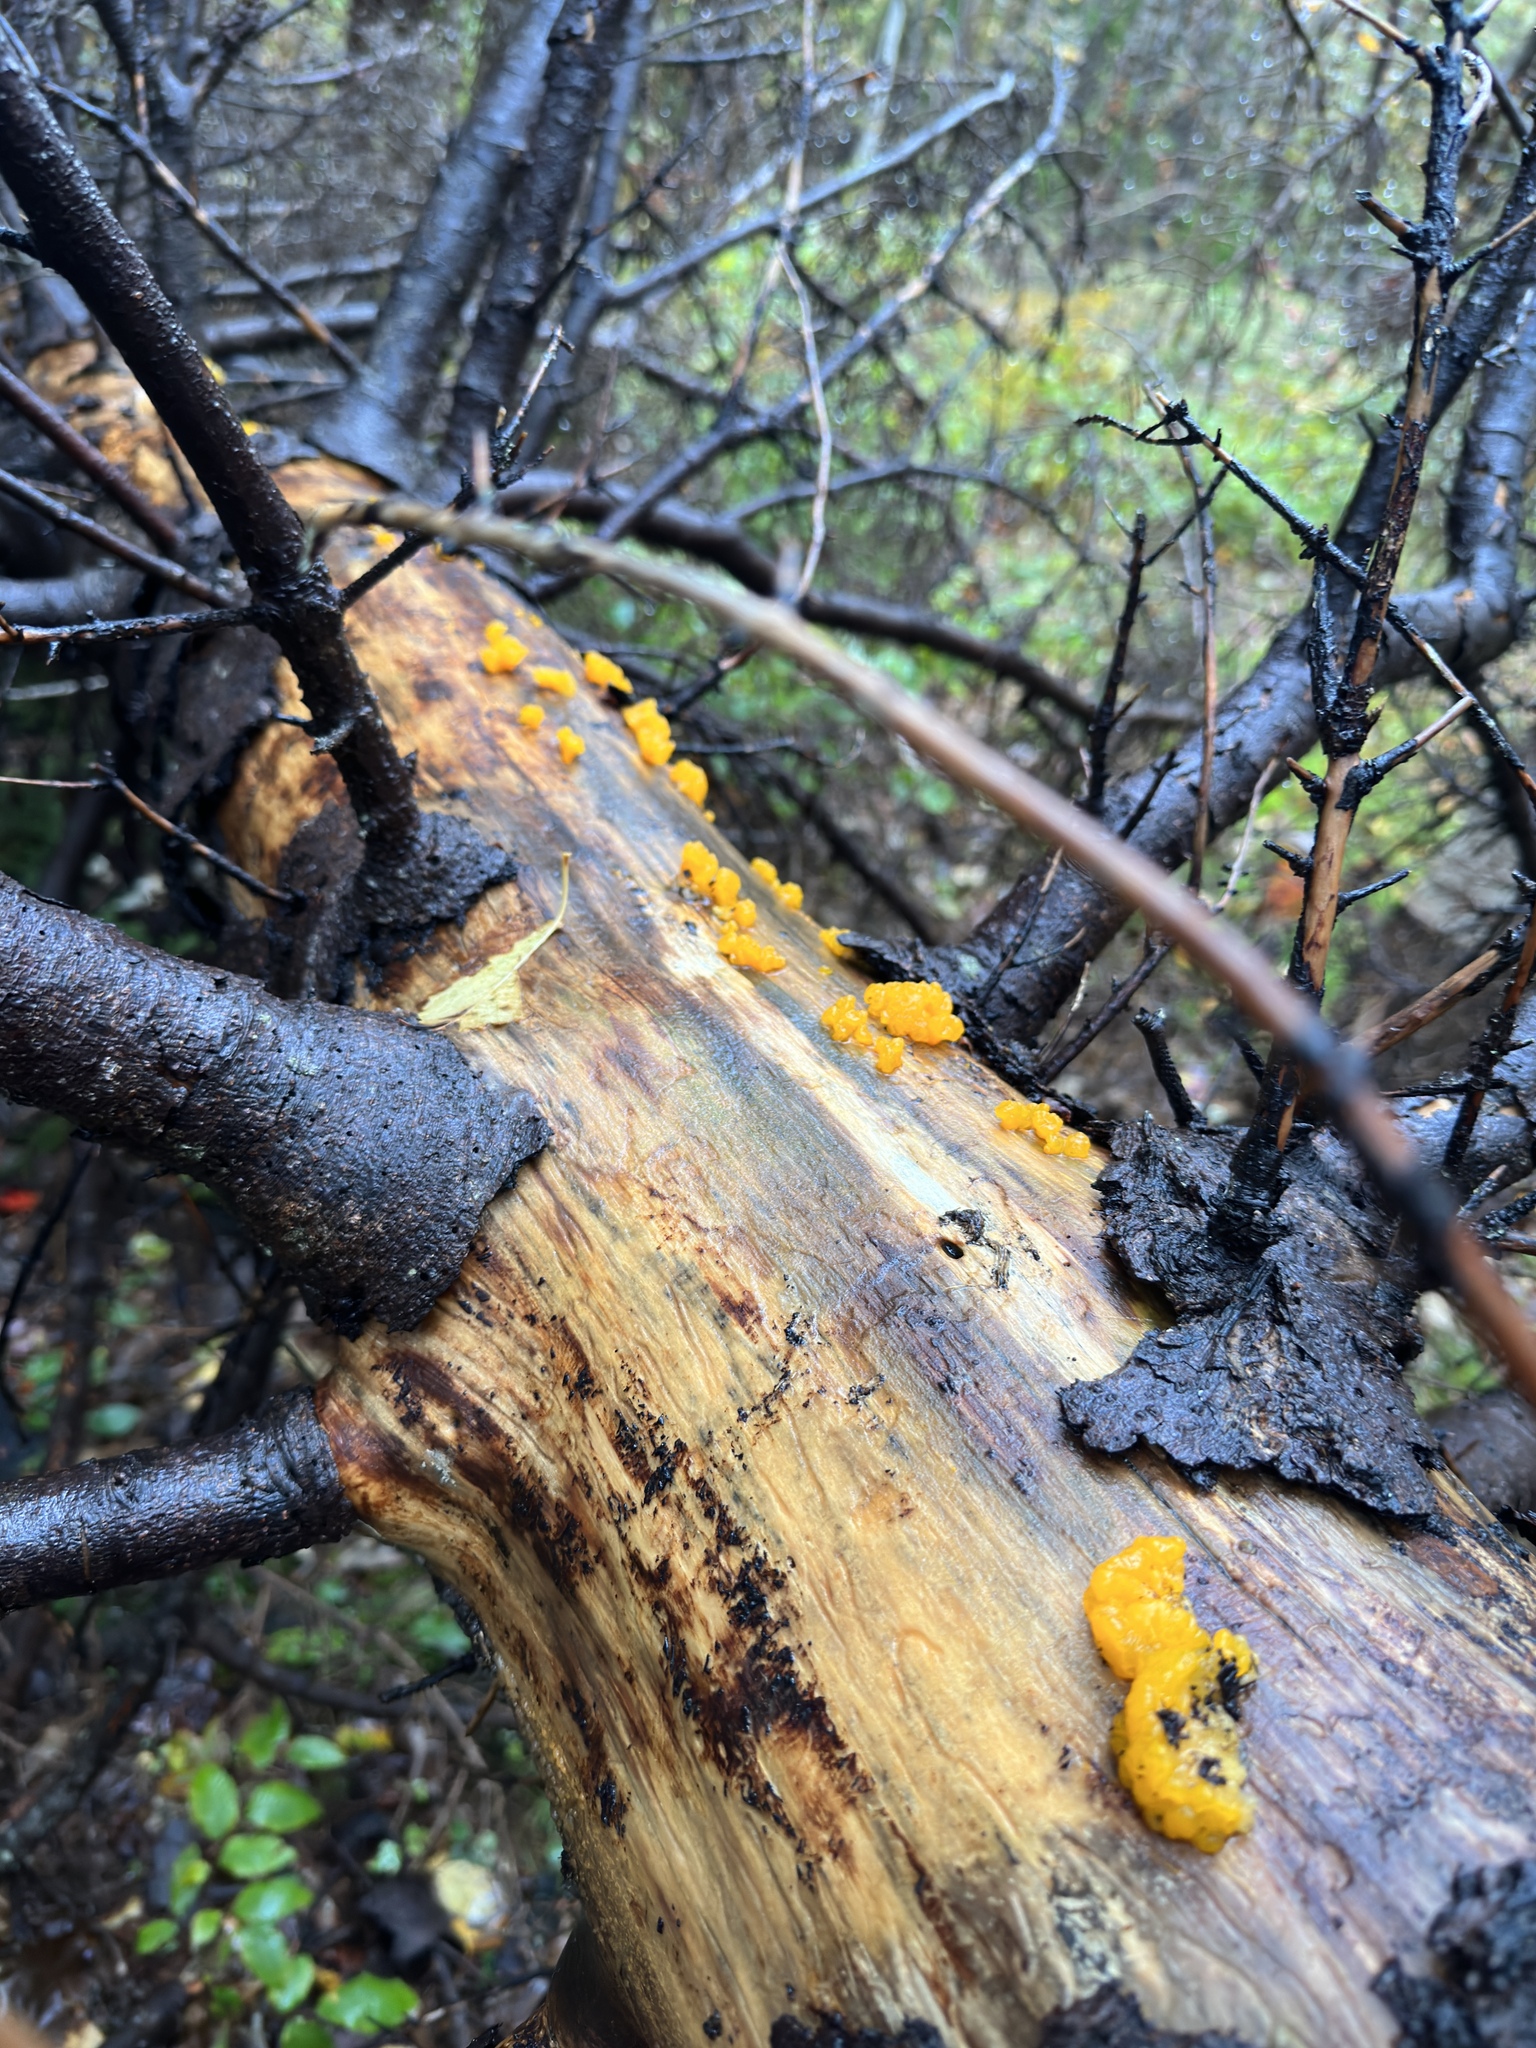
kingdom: Fungi
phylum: Basidiomycota
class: Dacrymycetes
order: Dacrymycetales
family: Dacrymycetaceae
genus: Dacrymyces
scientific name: Dacrymyces chrysospermus
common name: Orange jelly spot
